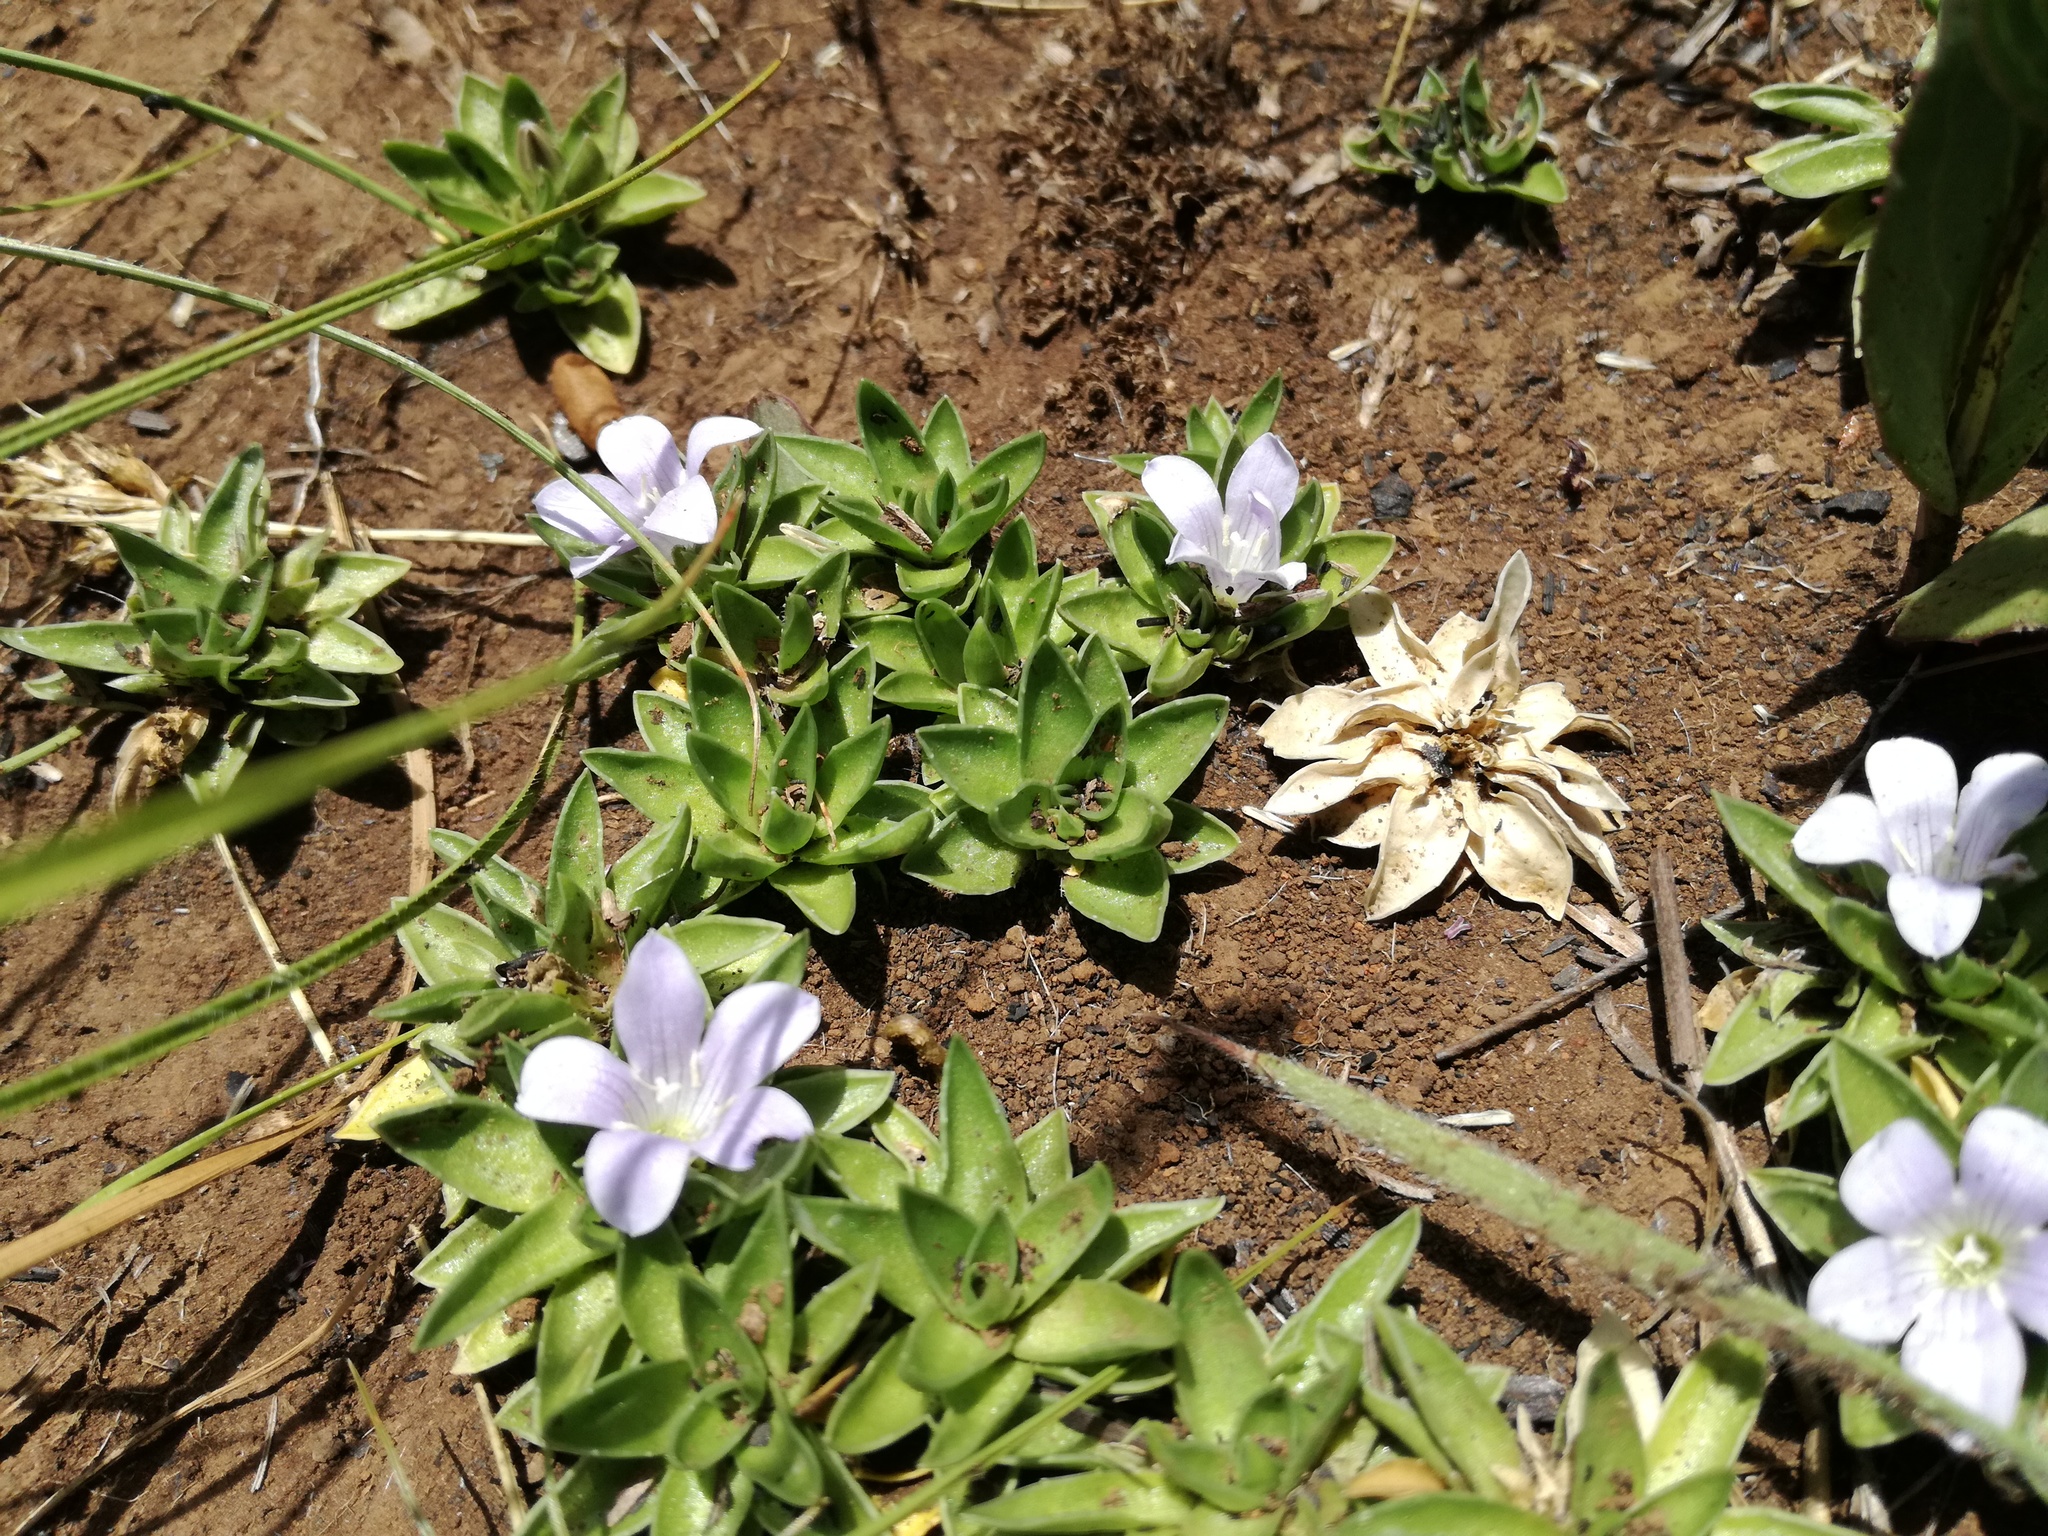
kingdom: Plantae
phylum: Tracheophyta
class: Magnoliopsida
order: Asterales
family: Campanulaceae
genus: Craterocapsa
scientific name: Craterocapsa tarsodes
